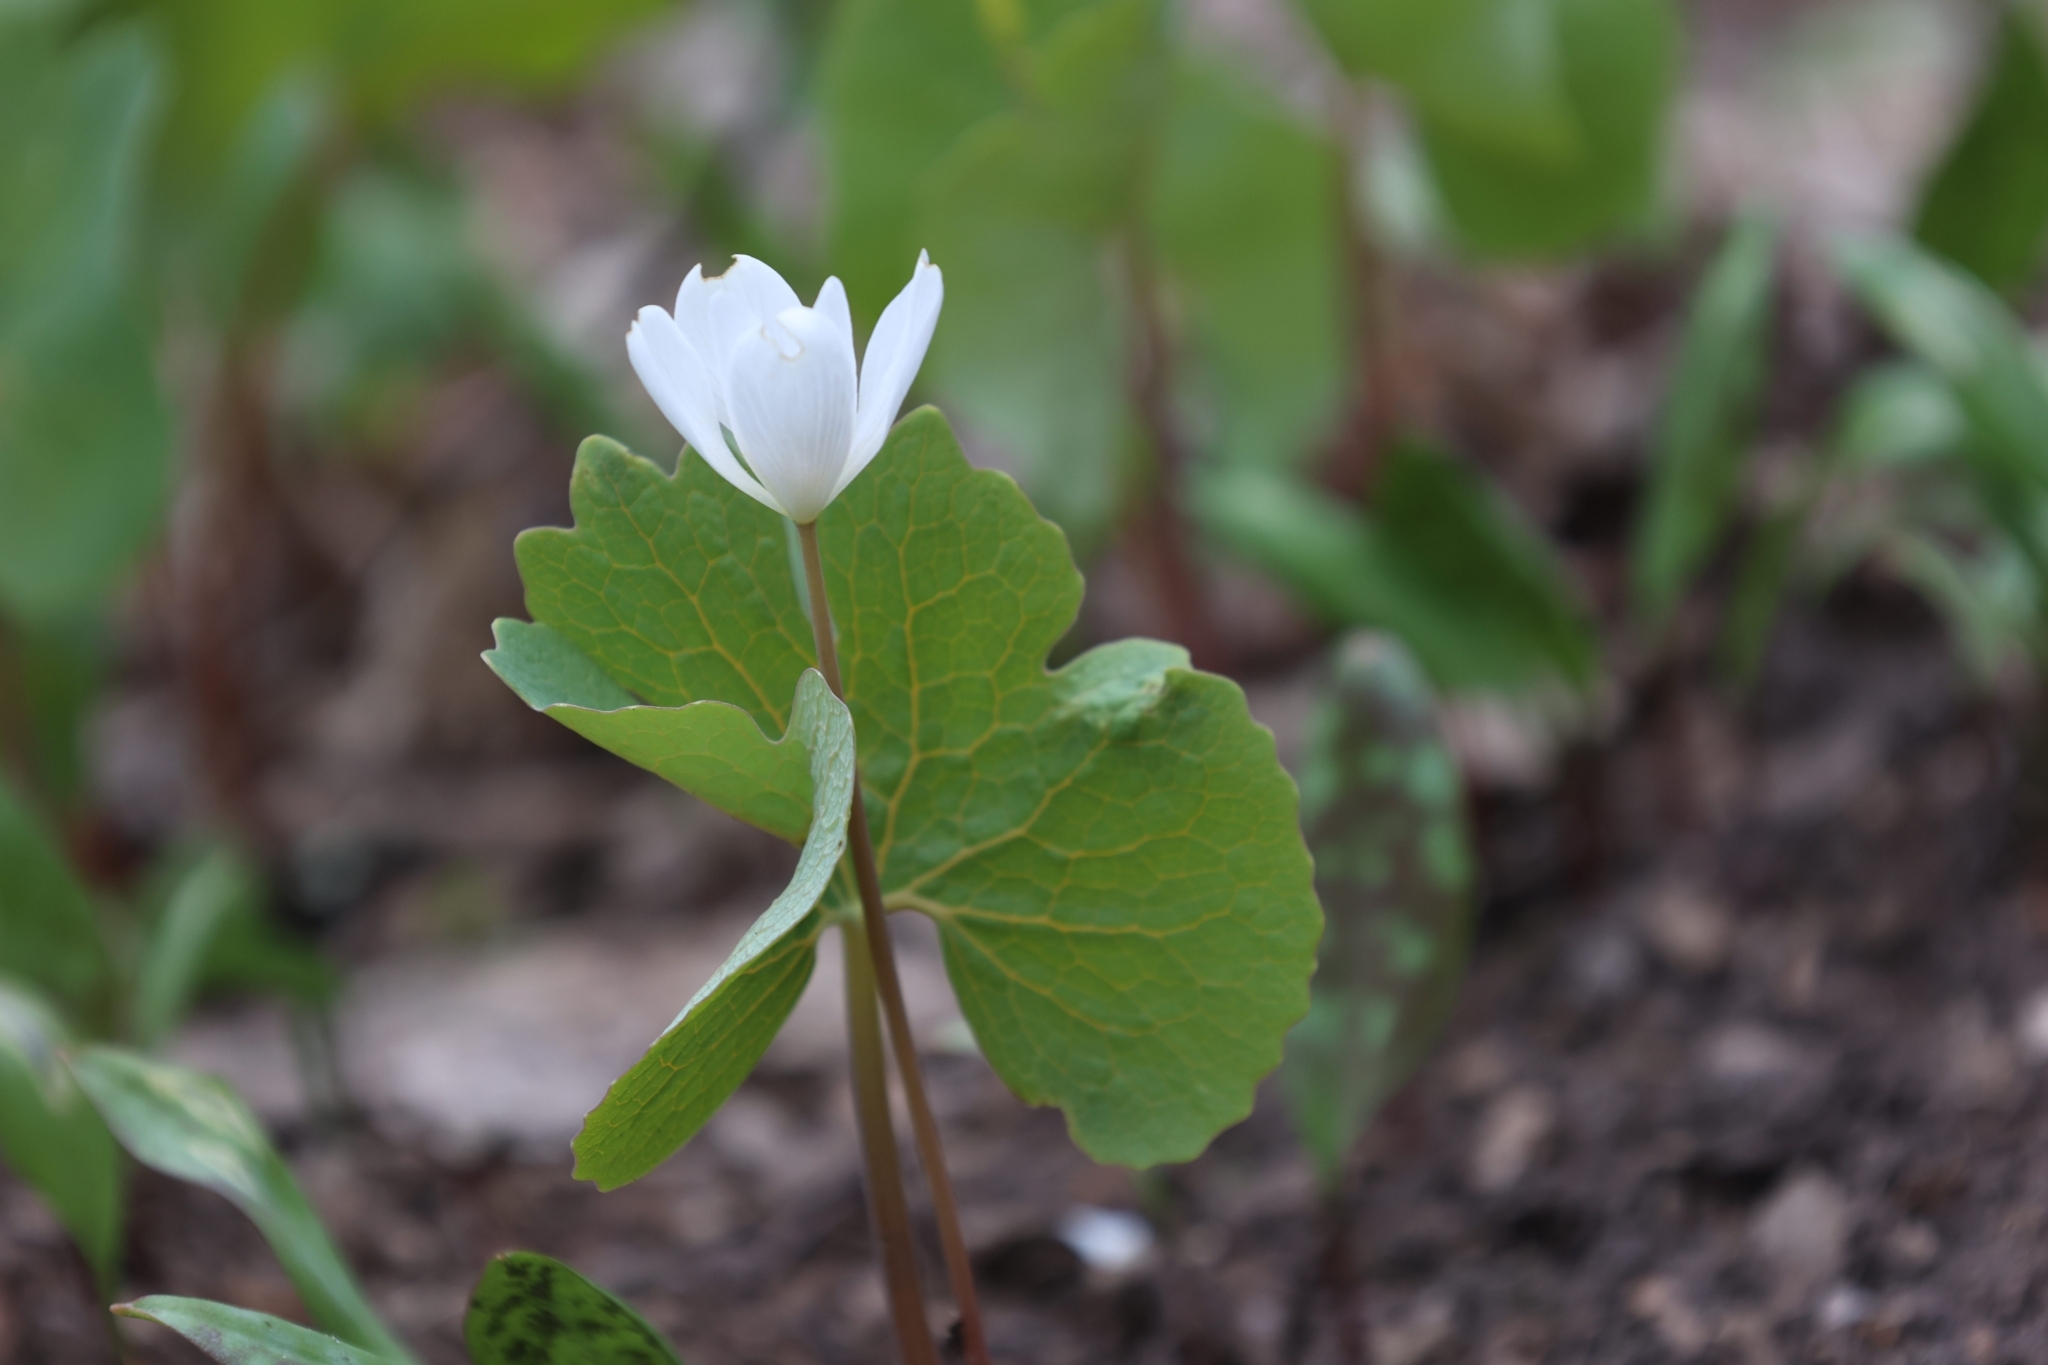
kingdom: Plantae
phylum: Tracheophyta
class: Magnoliopsida
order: Ranunculales
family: Papaveraceae
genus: Sanguinaria
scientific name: Sanguinaria canadensis
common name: Bloodroot
